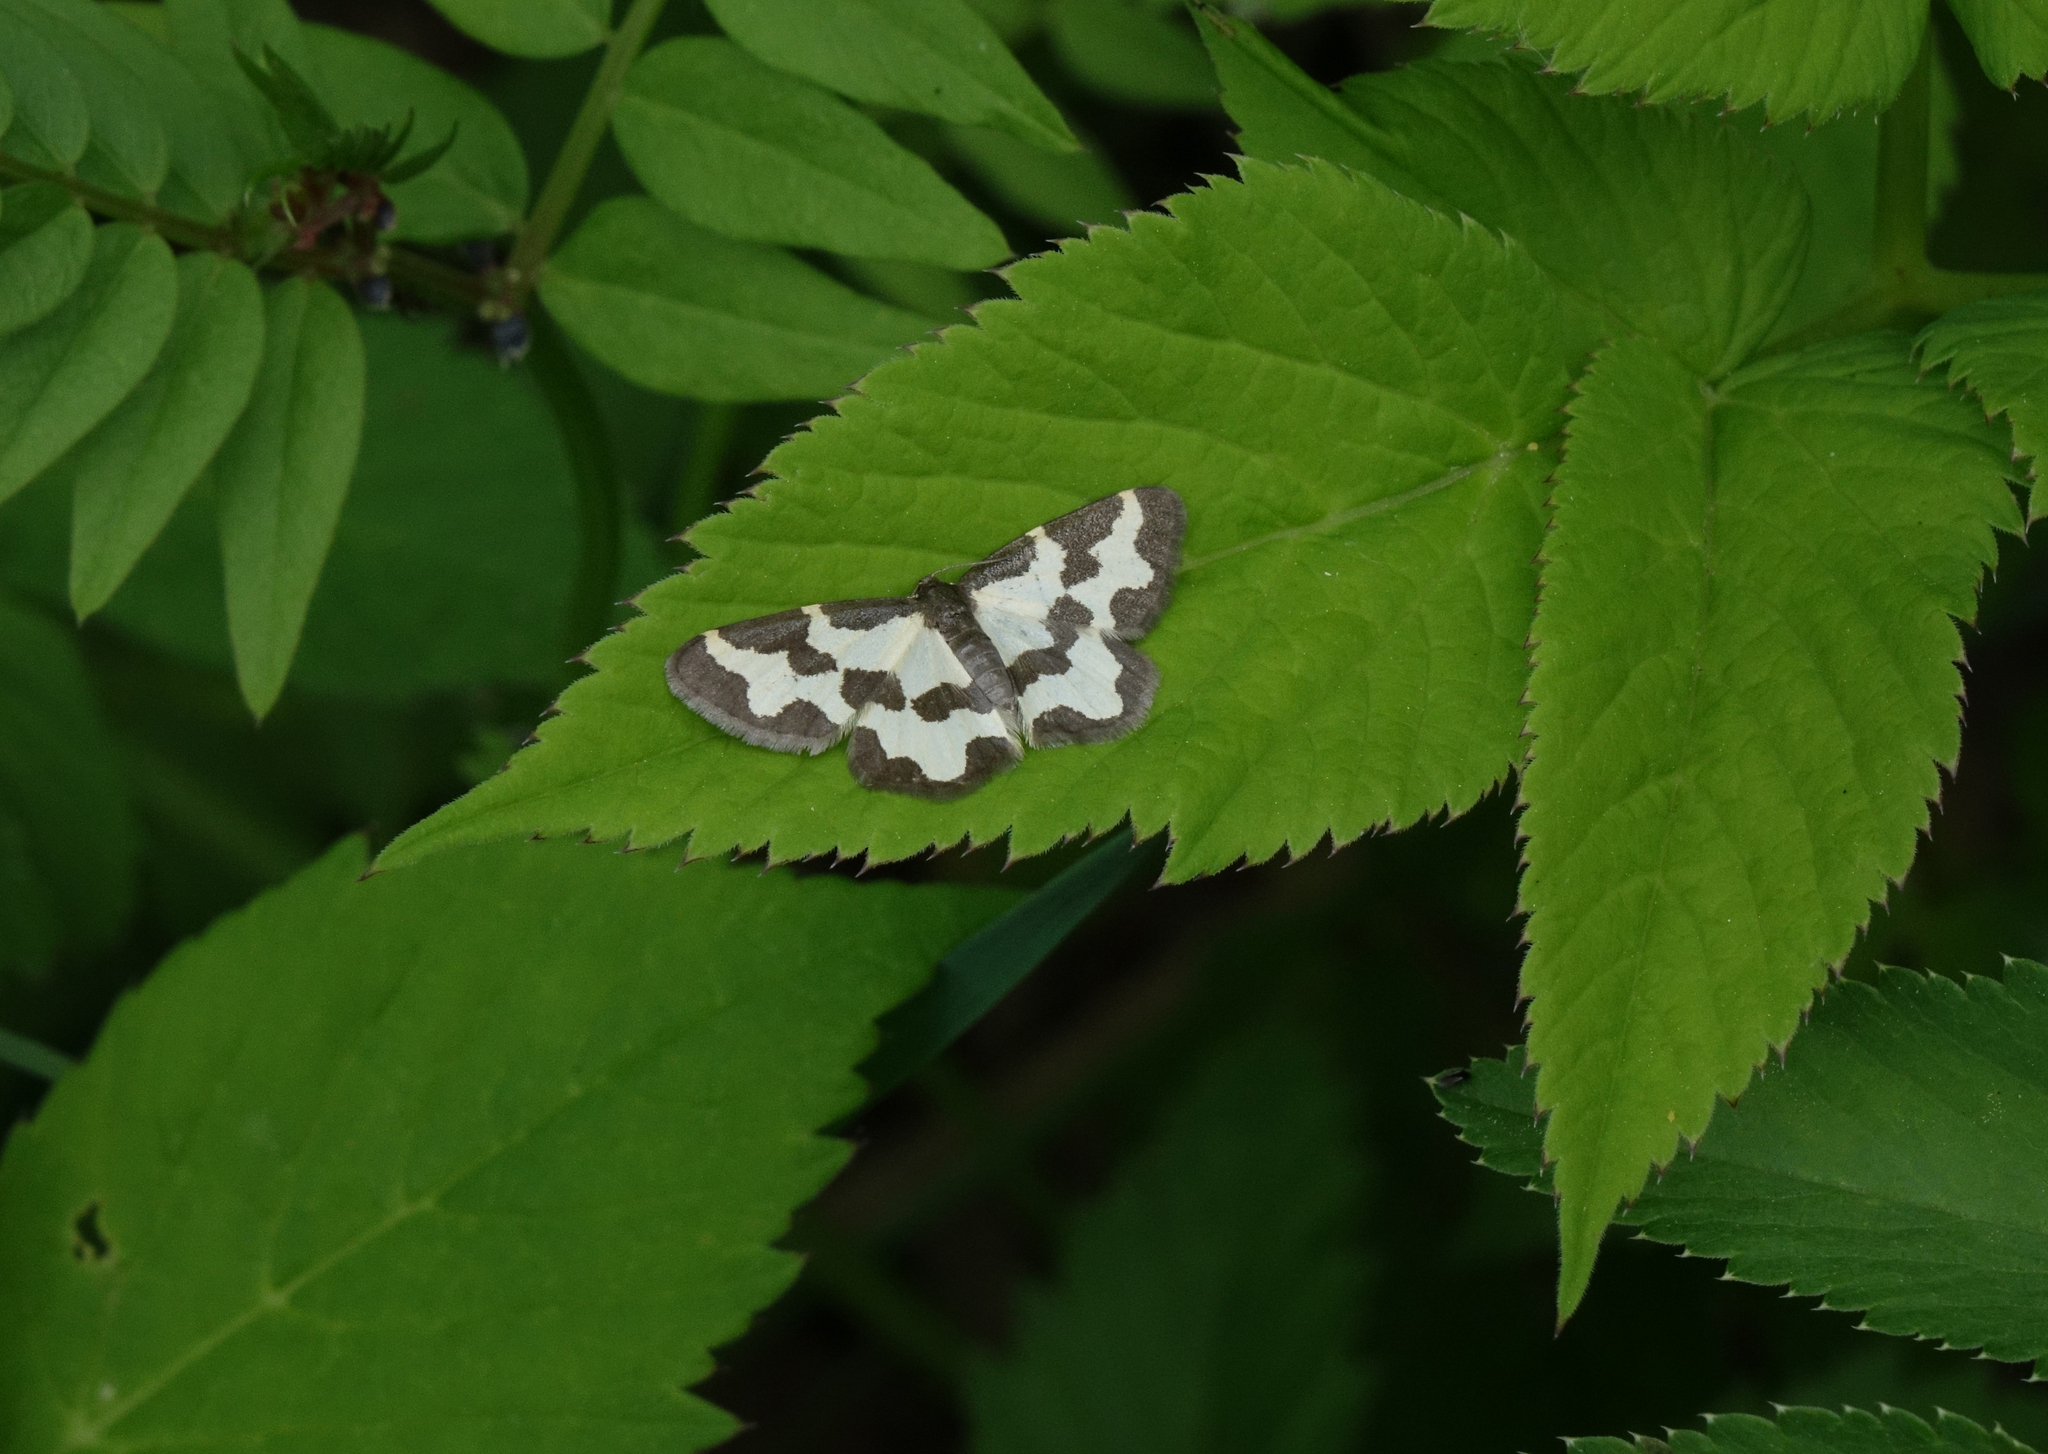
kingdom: Plantae
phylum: Tracheophyta
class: Magnoliopsida
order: Apiales
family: Apiaceae
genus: Aegopodium
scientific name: Aegopodium podagraria
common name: Ground-elder
